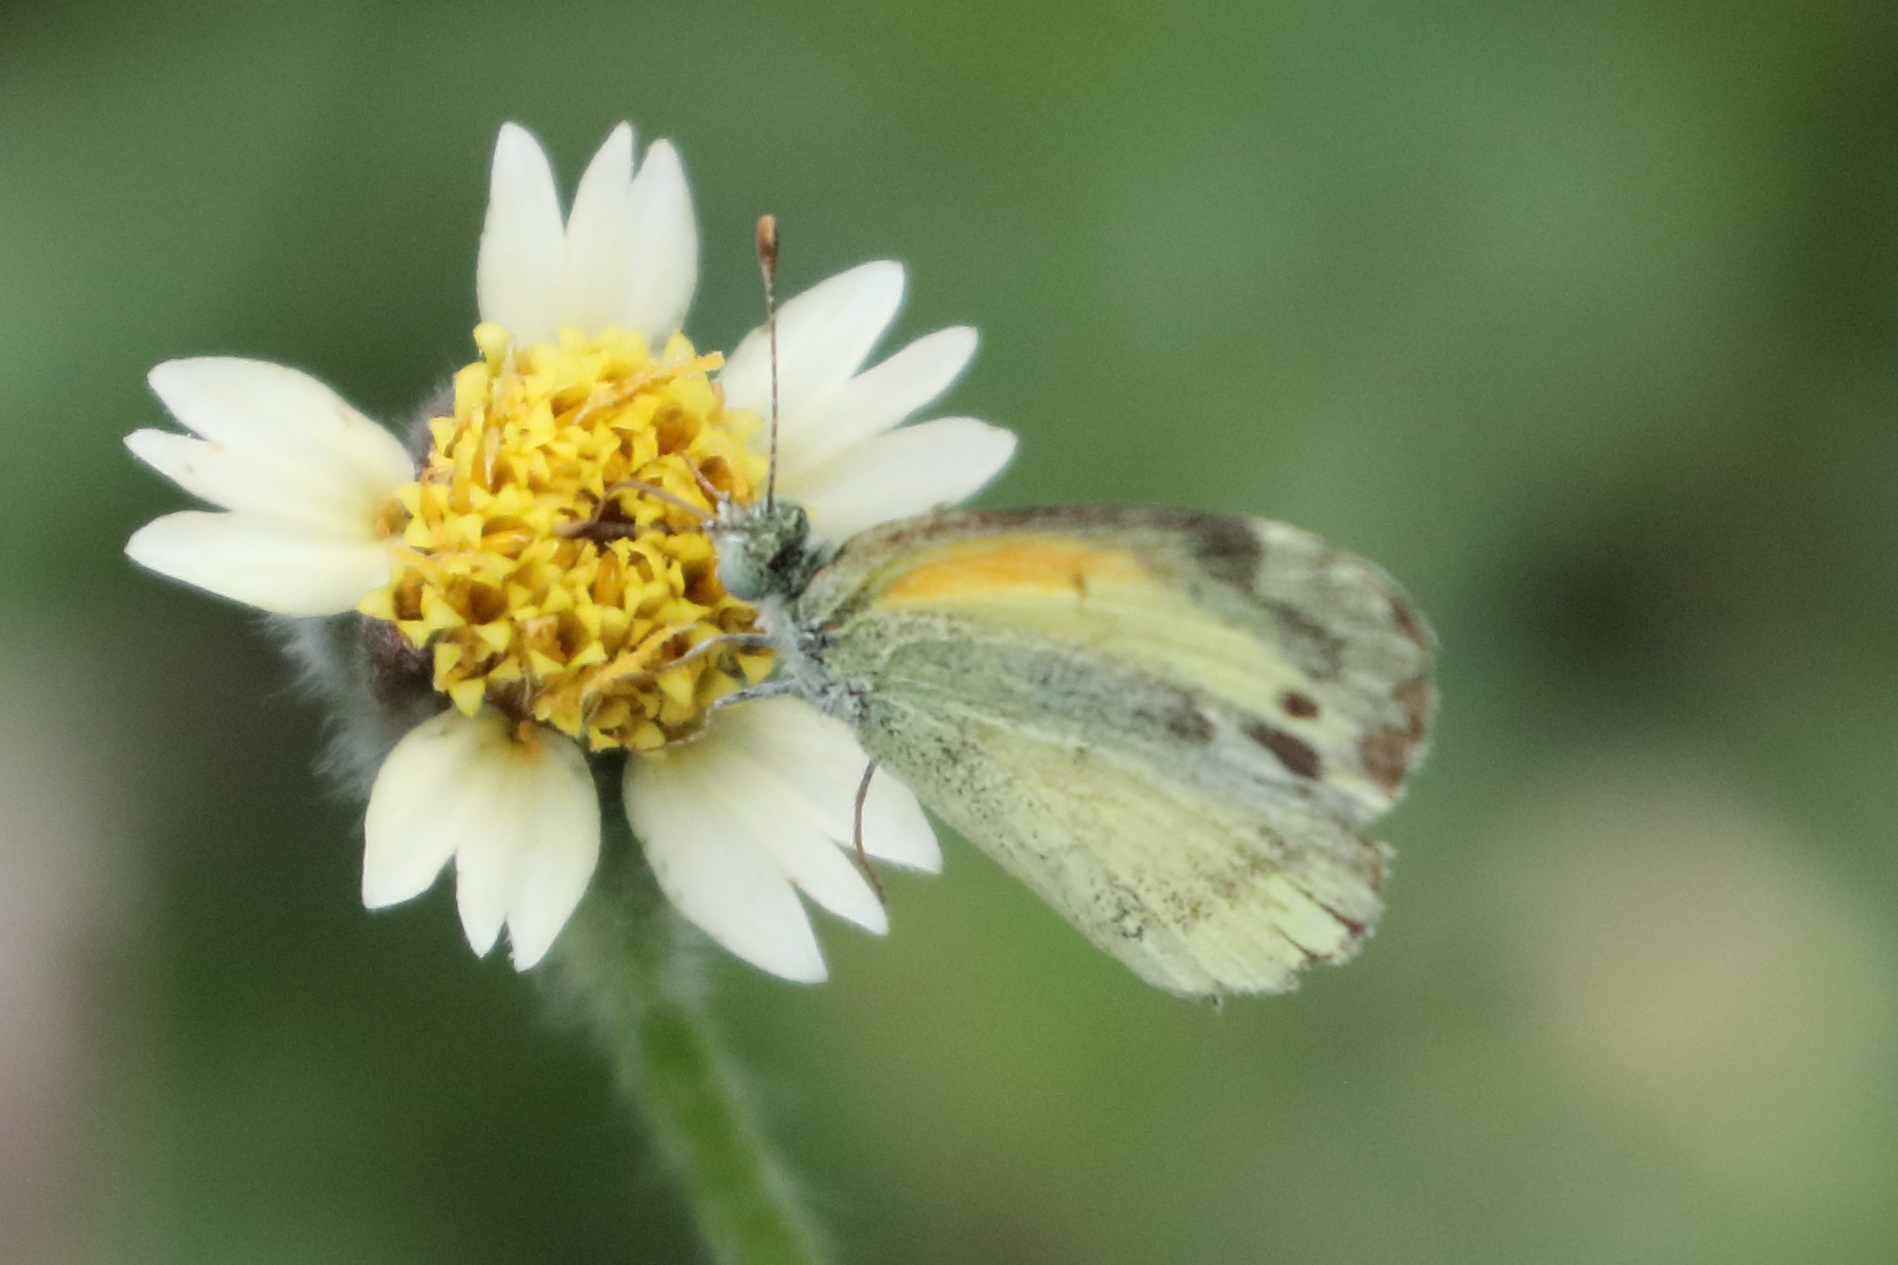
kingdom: Animalia
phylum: Arthropoda
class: Insecta
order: Lepidoptera
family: Pieridae
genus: Eurema
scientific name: Eurema daira
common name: Barred sulphur
